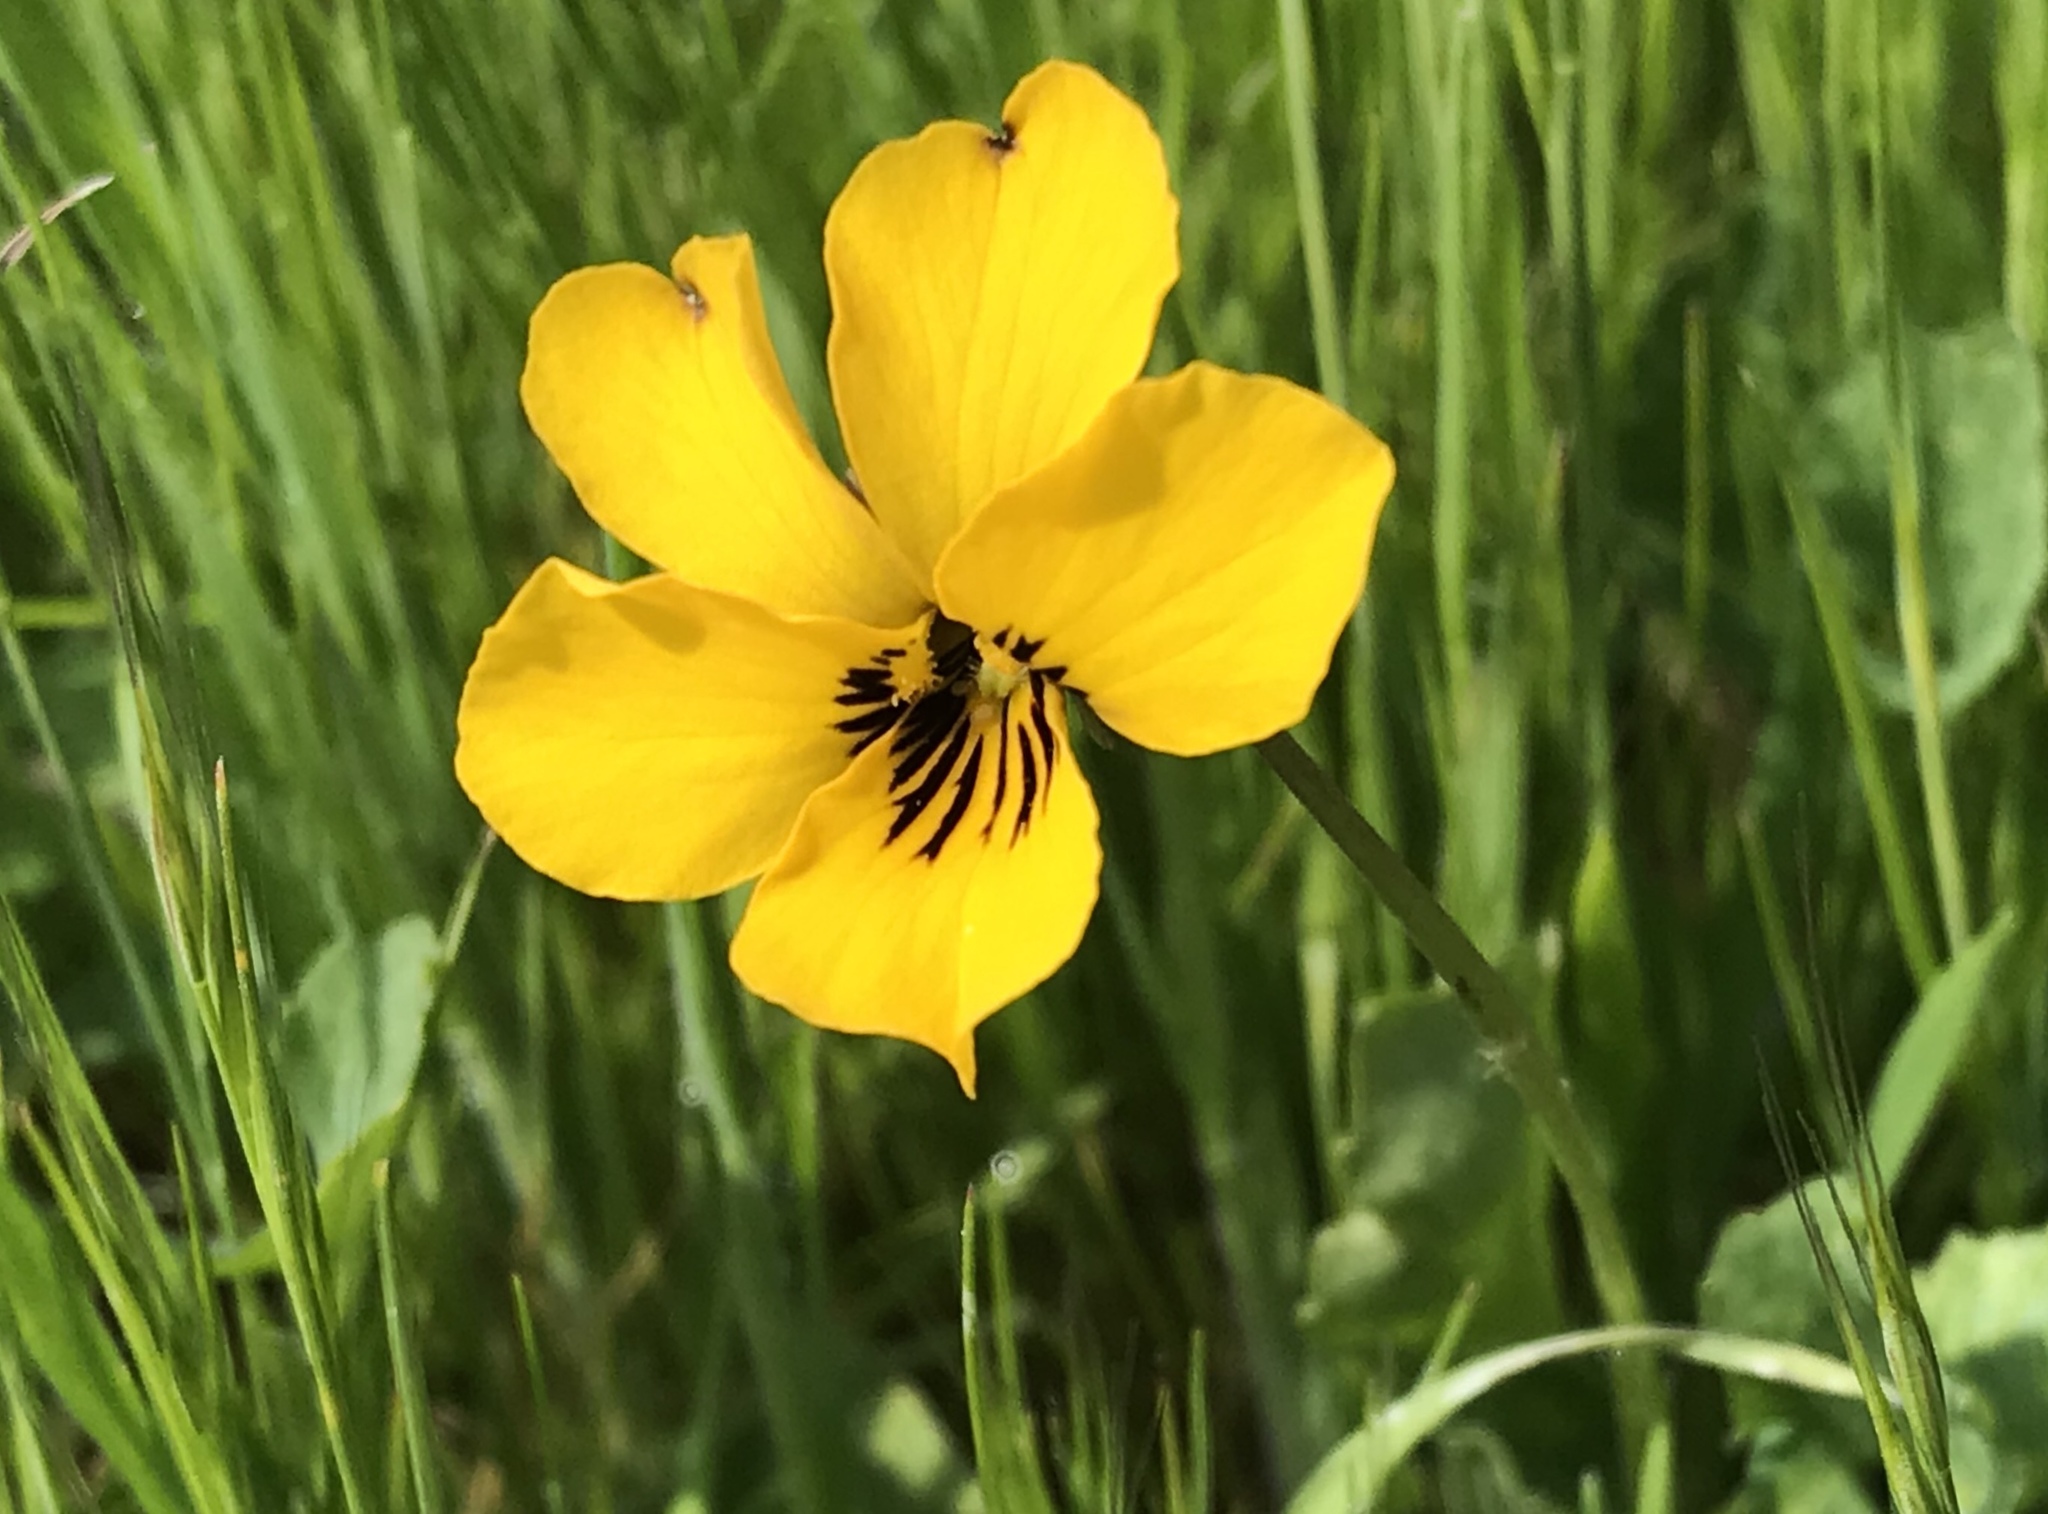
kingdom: Plantae
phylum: Tracheophyta
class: Magnoliopsida
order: Malpighiales
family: Violaceae
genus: Viola
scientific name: Viola pedunculata
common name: California golden violet
